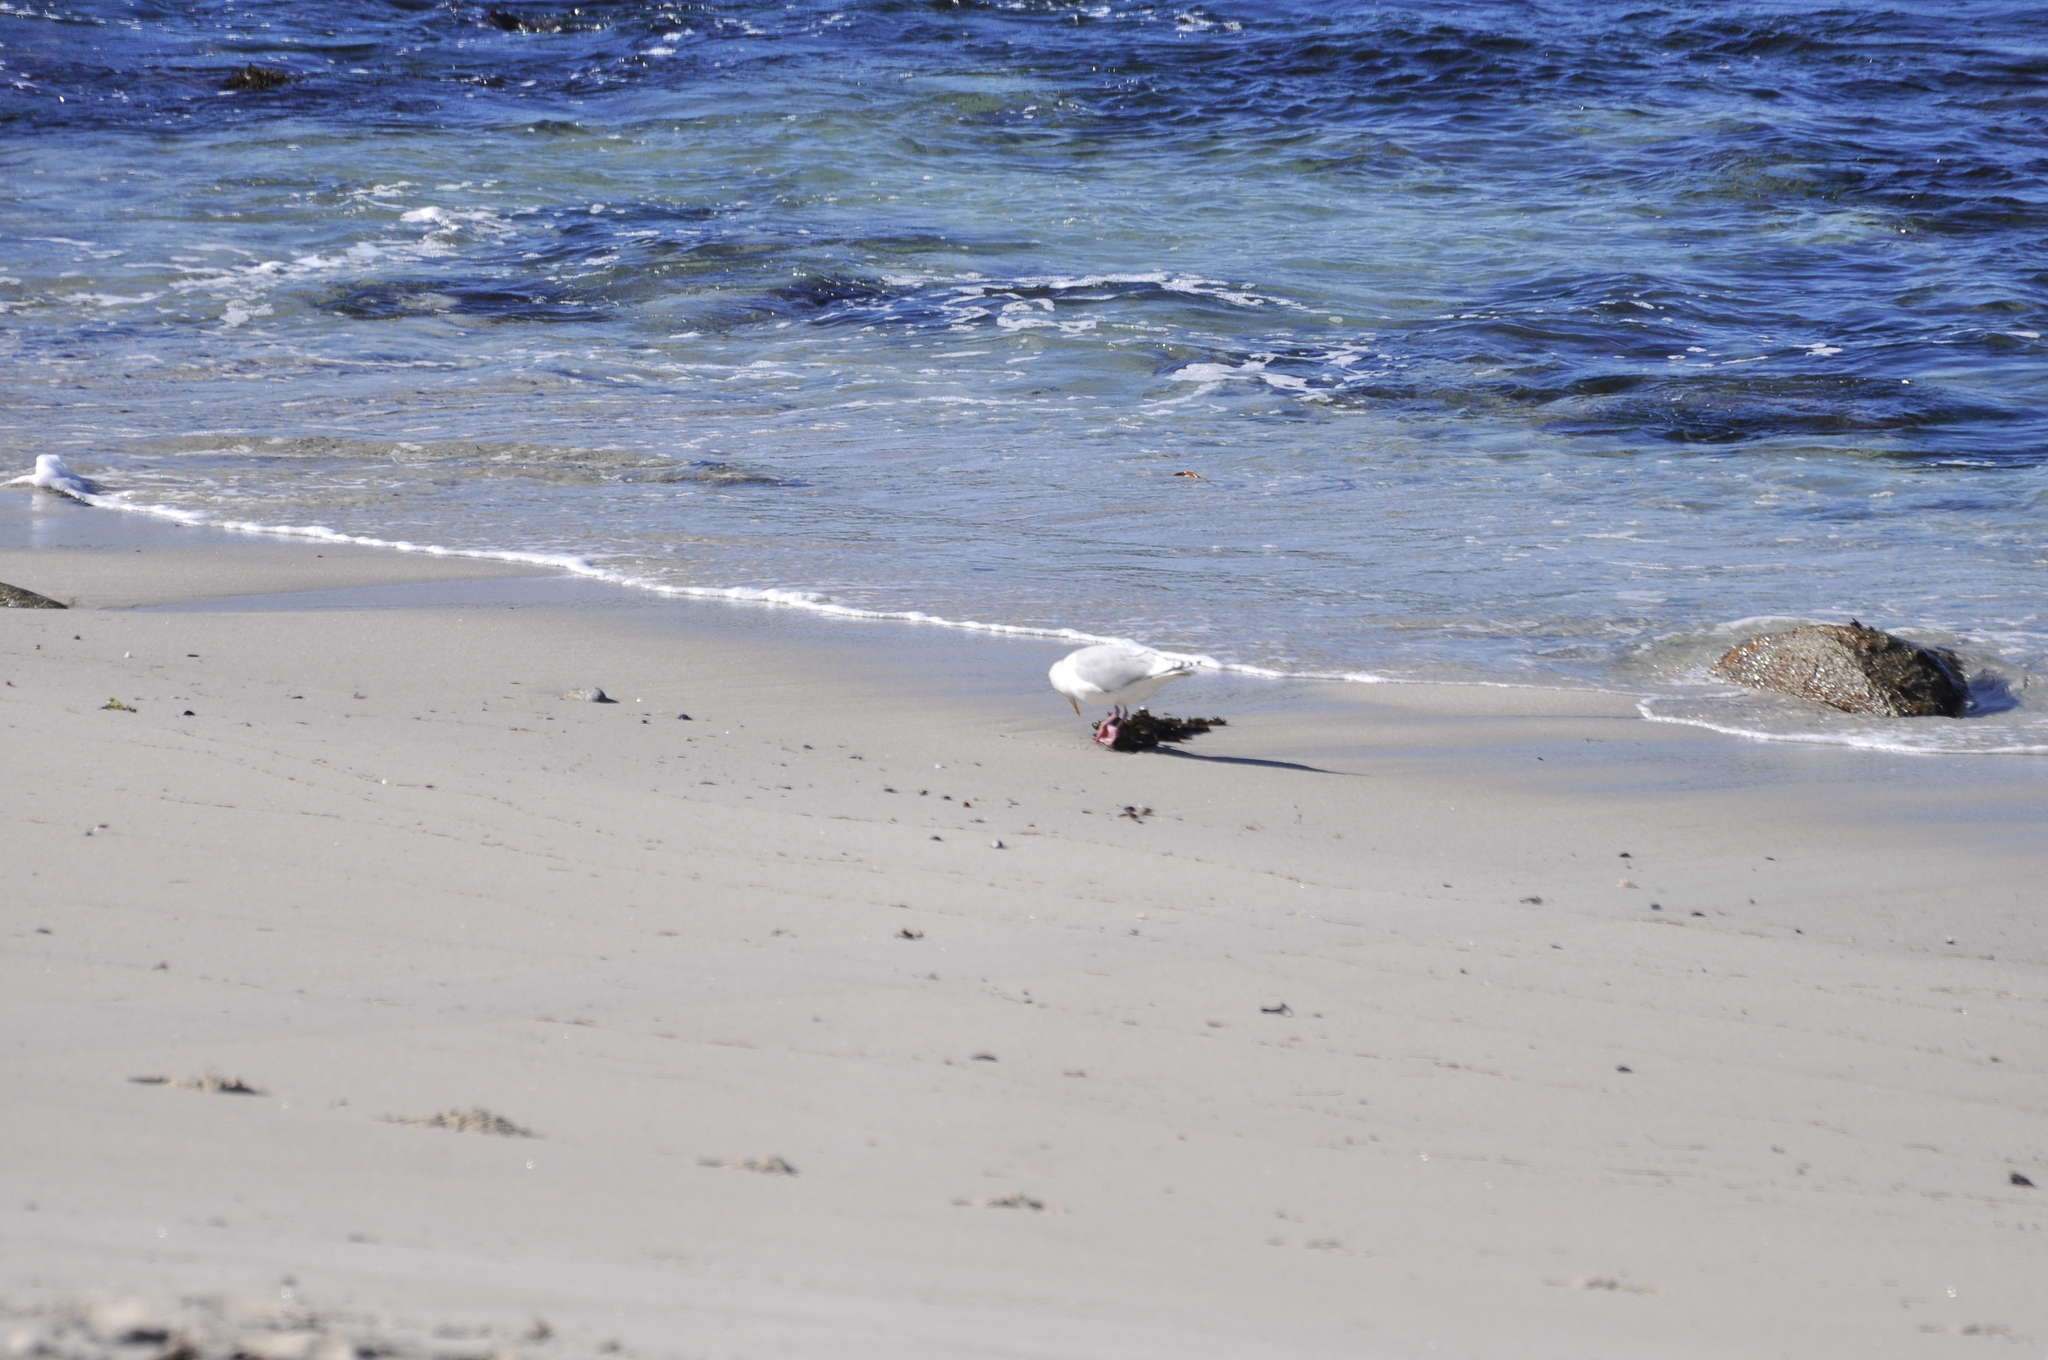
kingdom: Animalia
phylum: Chordata
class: Aves
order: Charadriiformes
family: Laridae
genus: Larus
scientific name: Larus glaucescens
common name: Glaucous-winged gull
